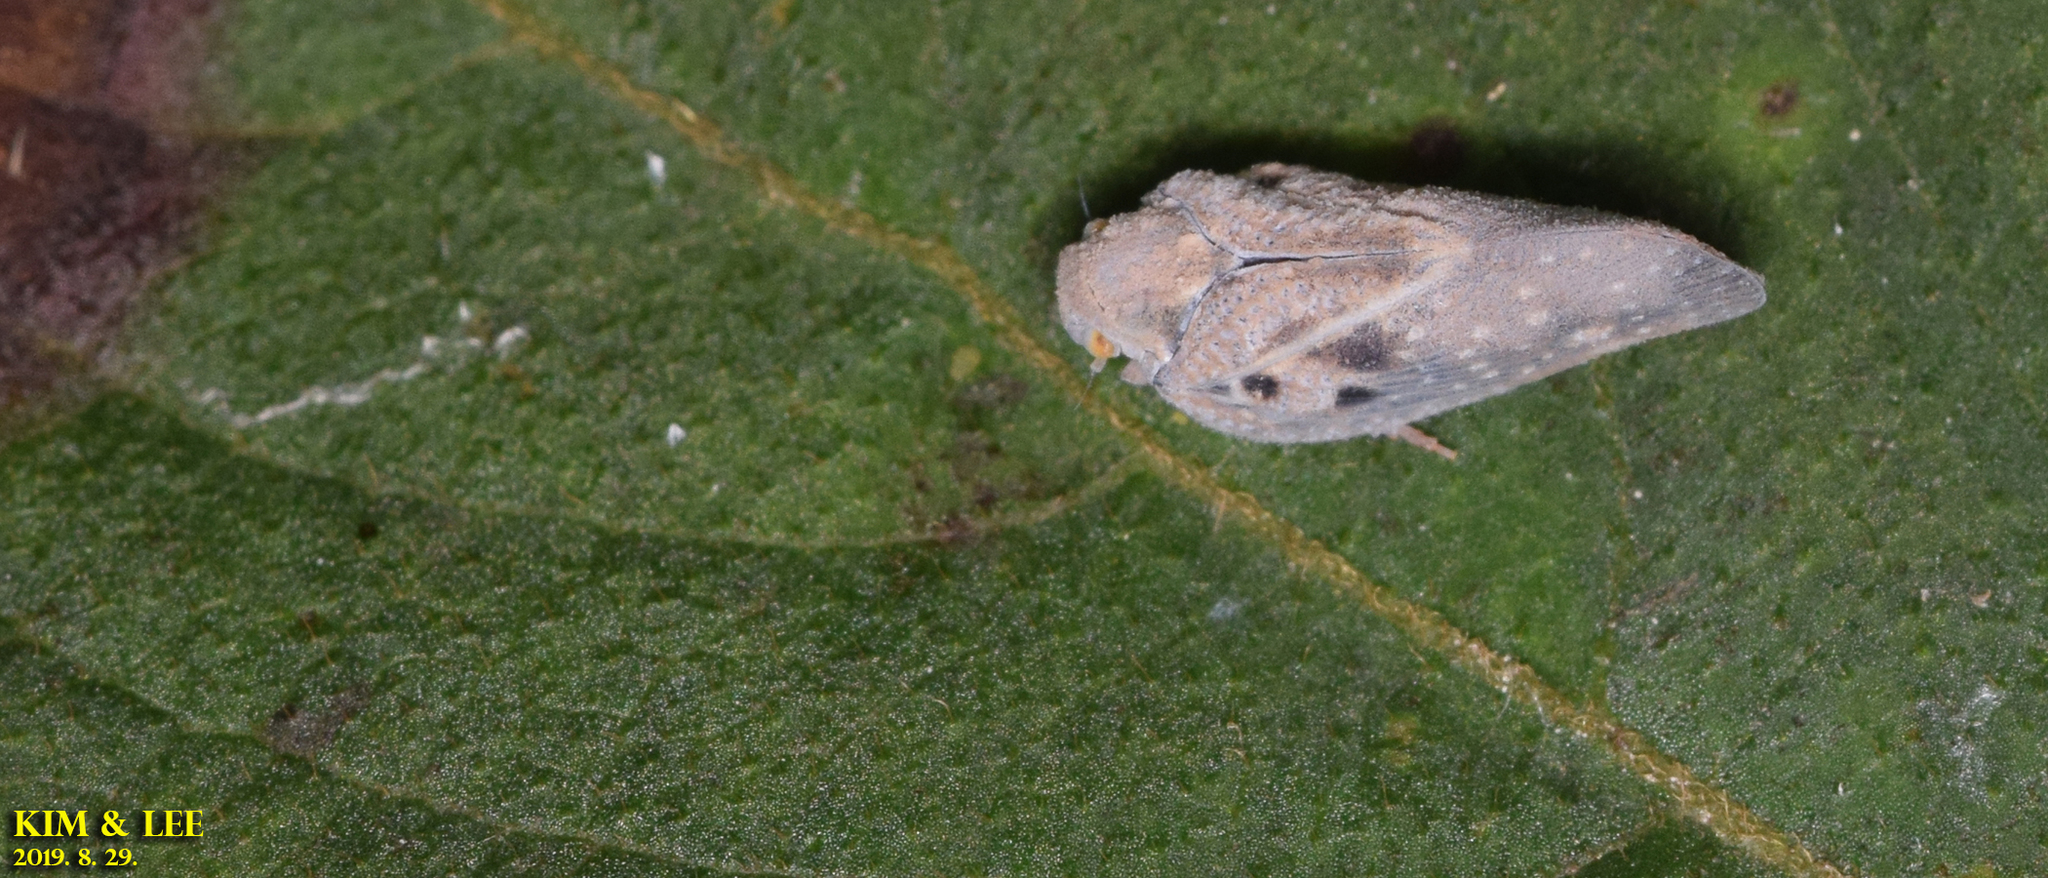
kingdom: Animalia
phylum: Arthropoda
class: Insecta
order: Hemiptera
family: Flatidae
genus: Metcalfa
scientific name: Metcalfa pruinosa
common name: Citrus flatid planthopper
